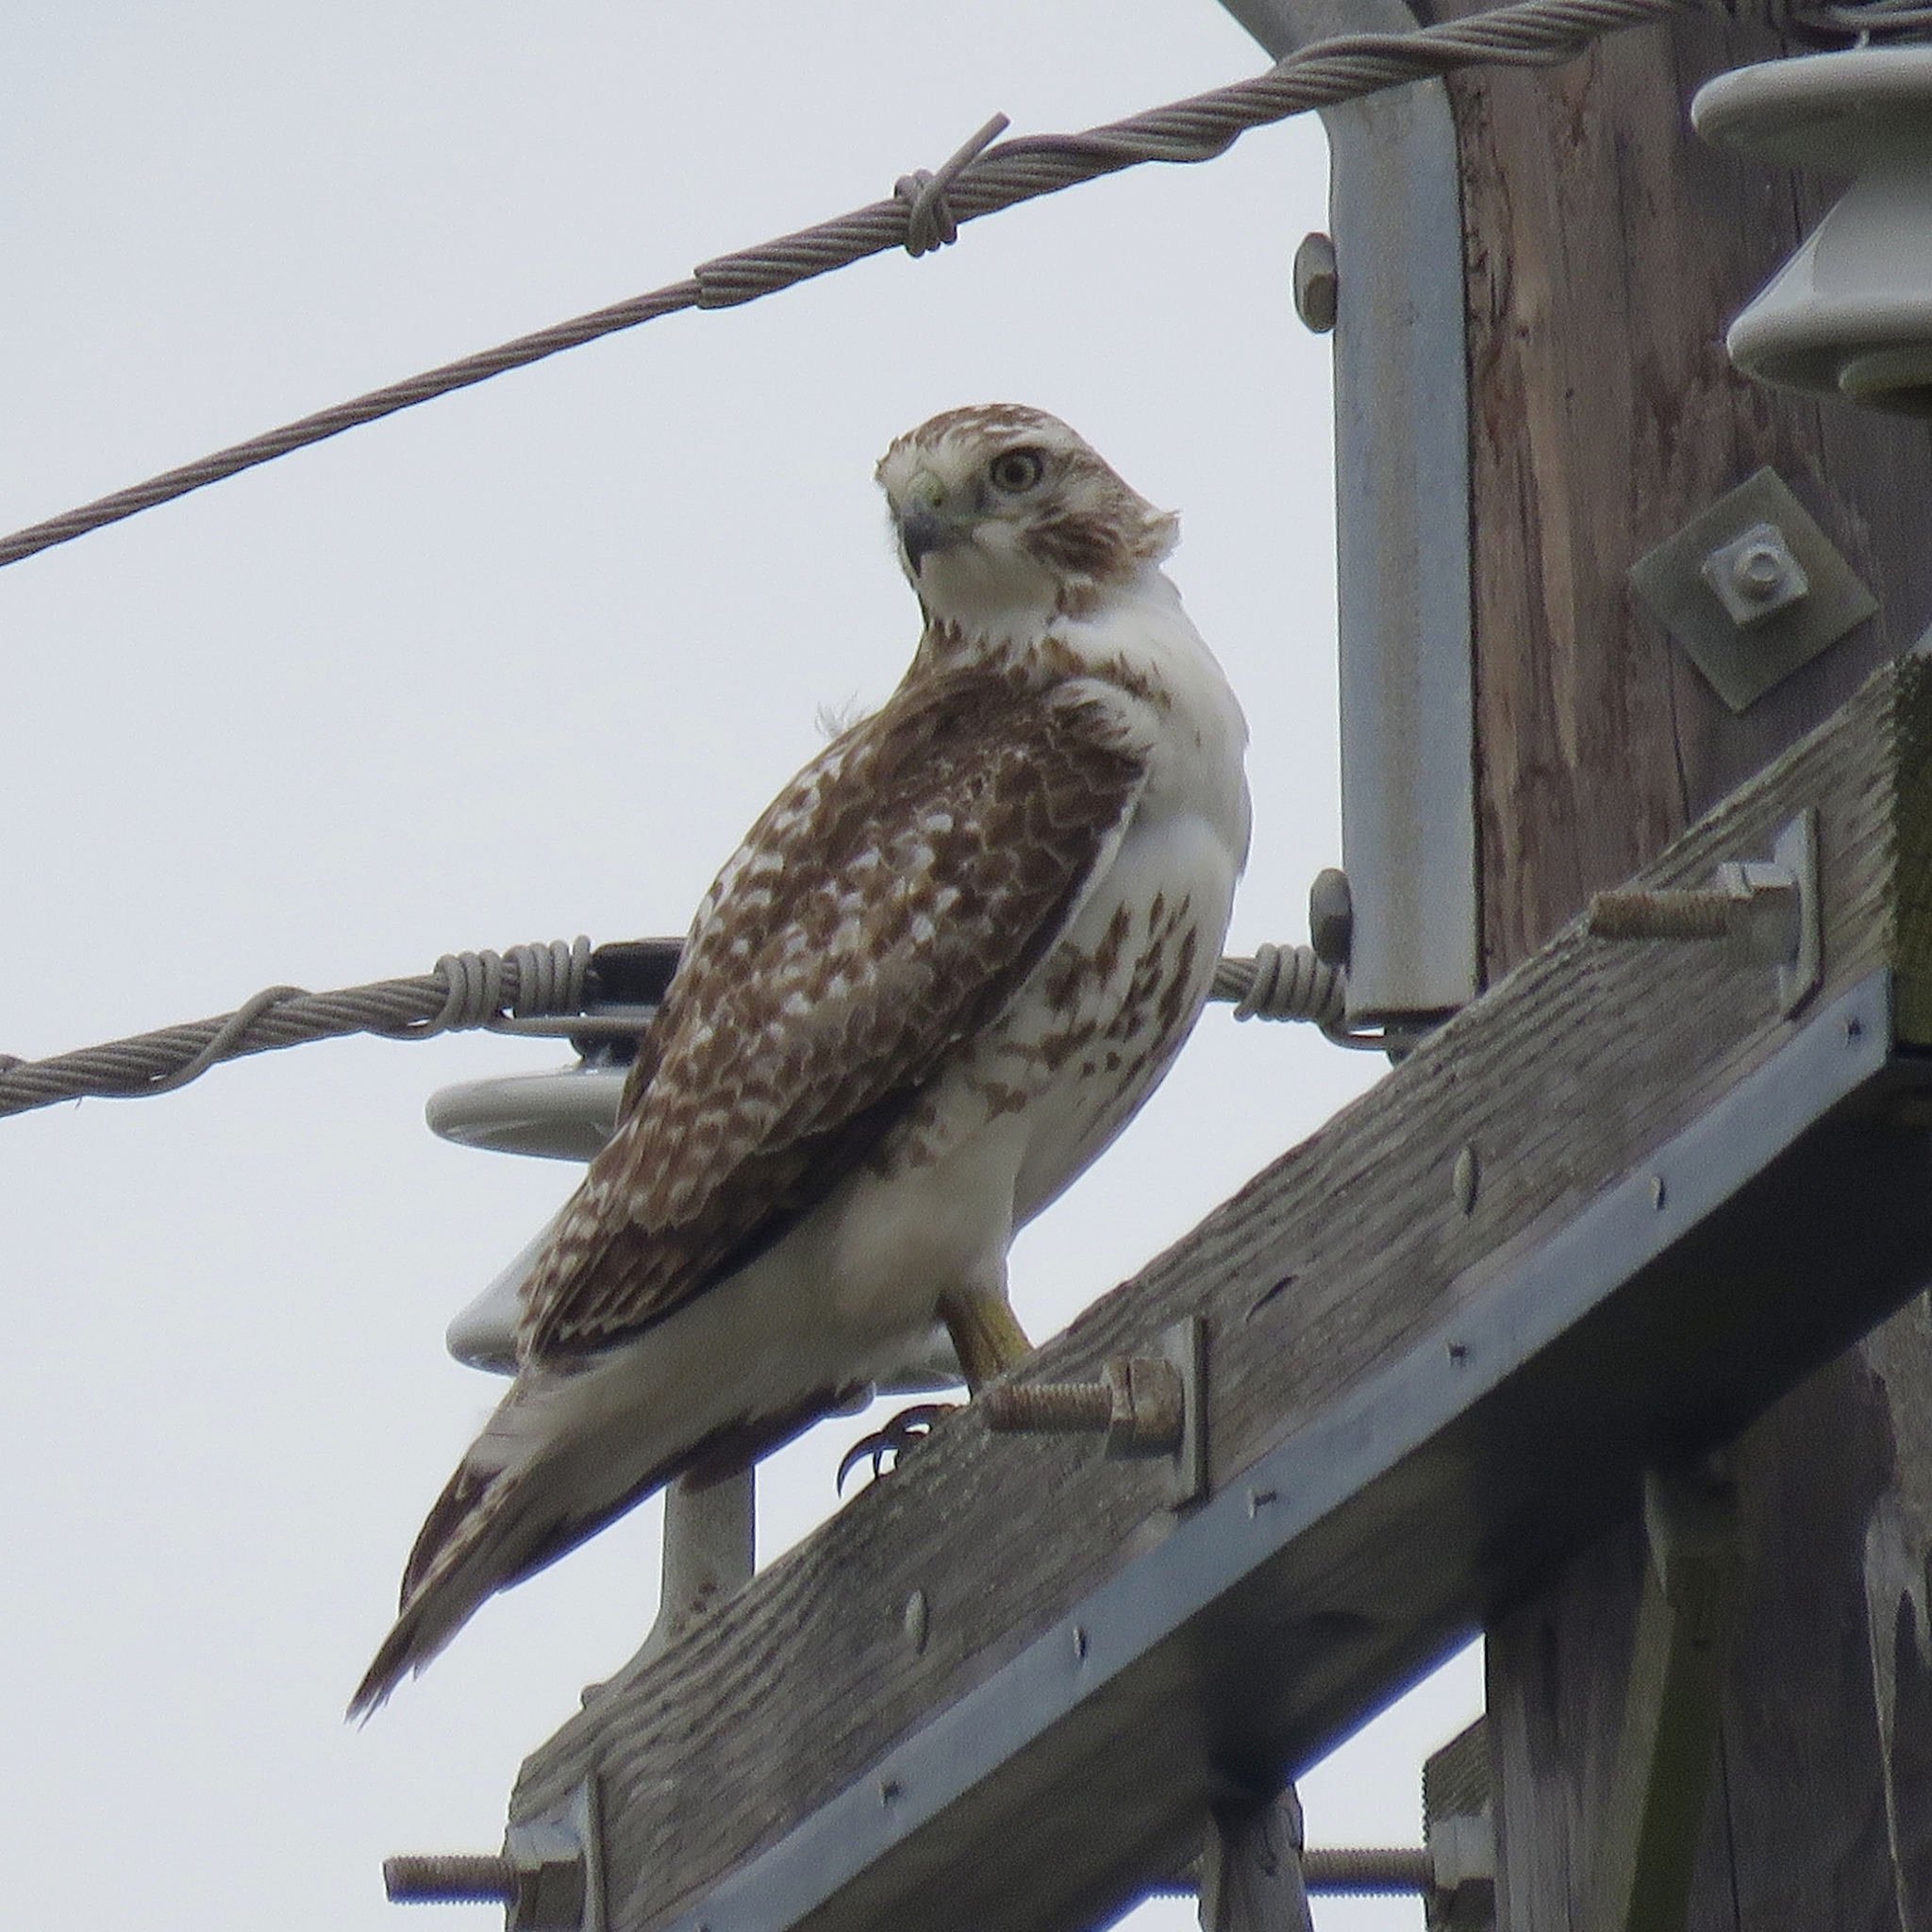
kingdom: Animalia
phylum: Chordata
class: Aves
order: Accipitriformes
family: Accipitridae
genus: Buteo
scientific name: Buteo jamaicensis
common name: Red-tailed hawk
